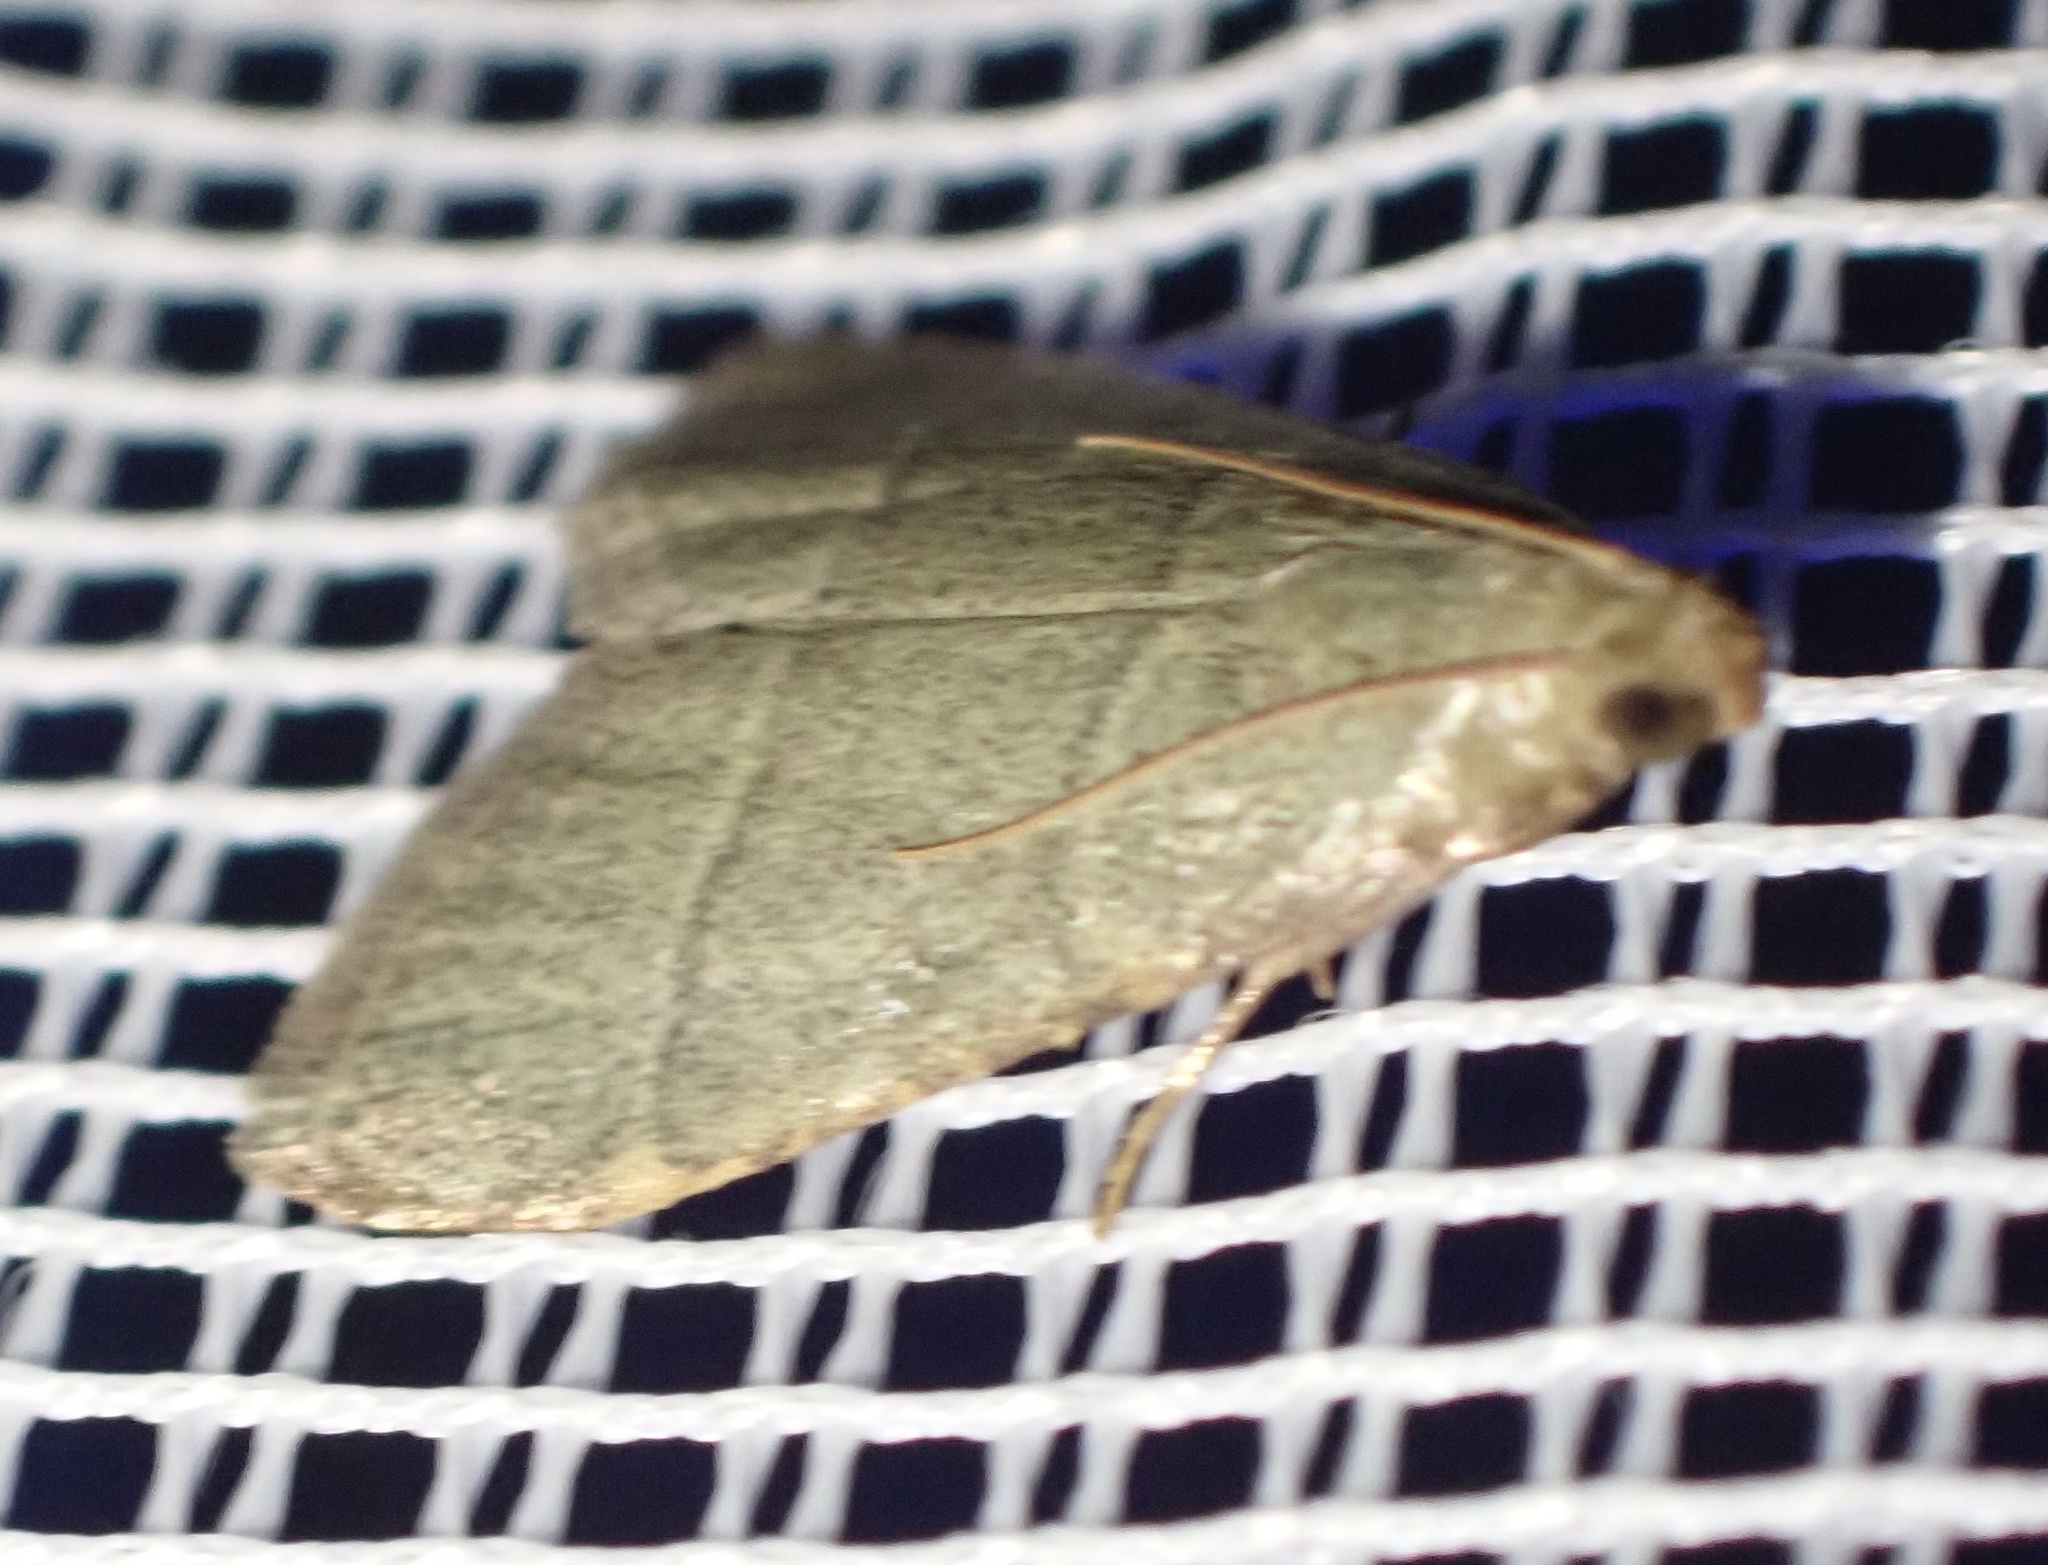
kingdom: Animalia
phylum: Arthropoda
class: Insecta
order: Lepidoptera
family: Pyralidae
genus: Hypsopygia
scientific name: Hypsopygia nostralis
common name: Southern hayworm moth
